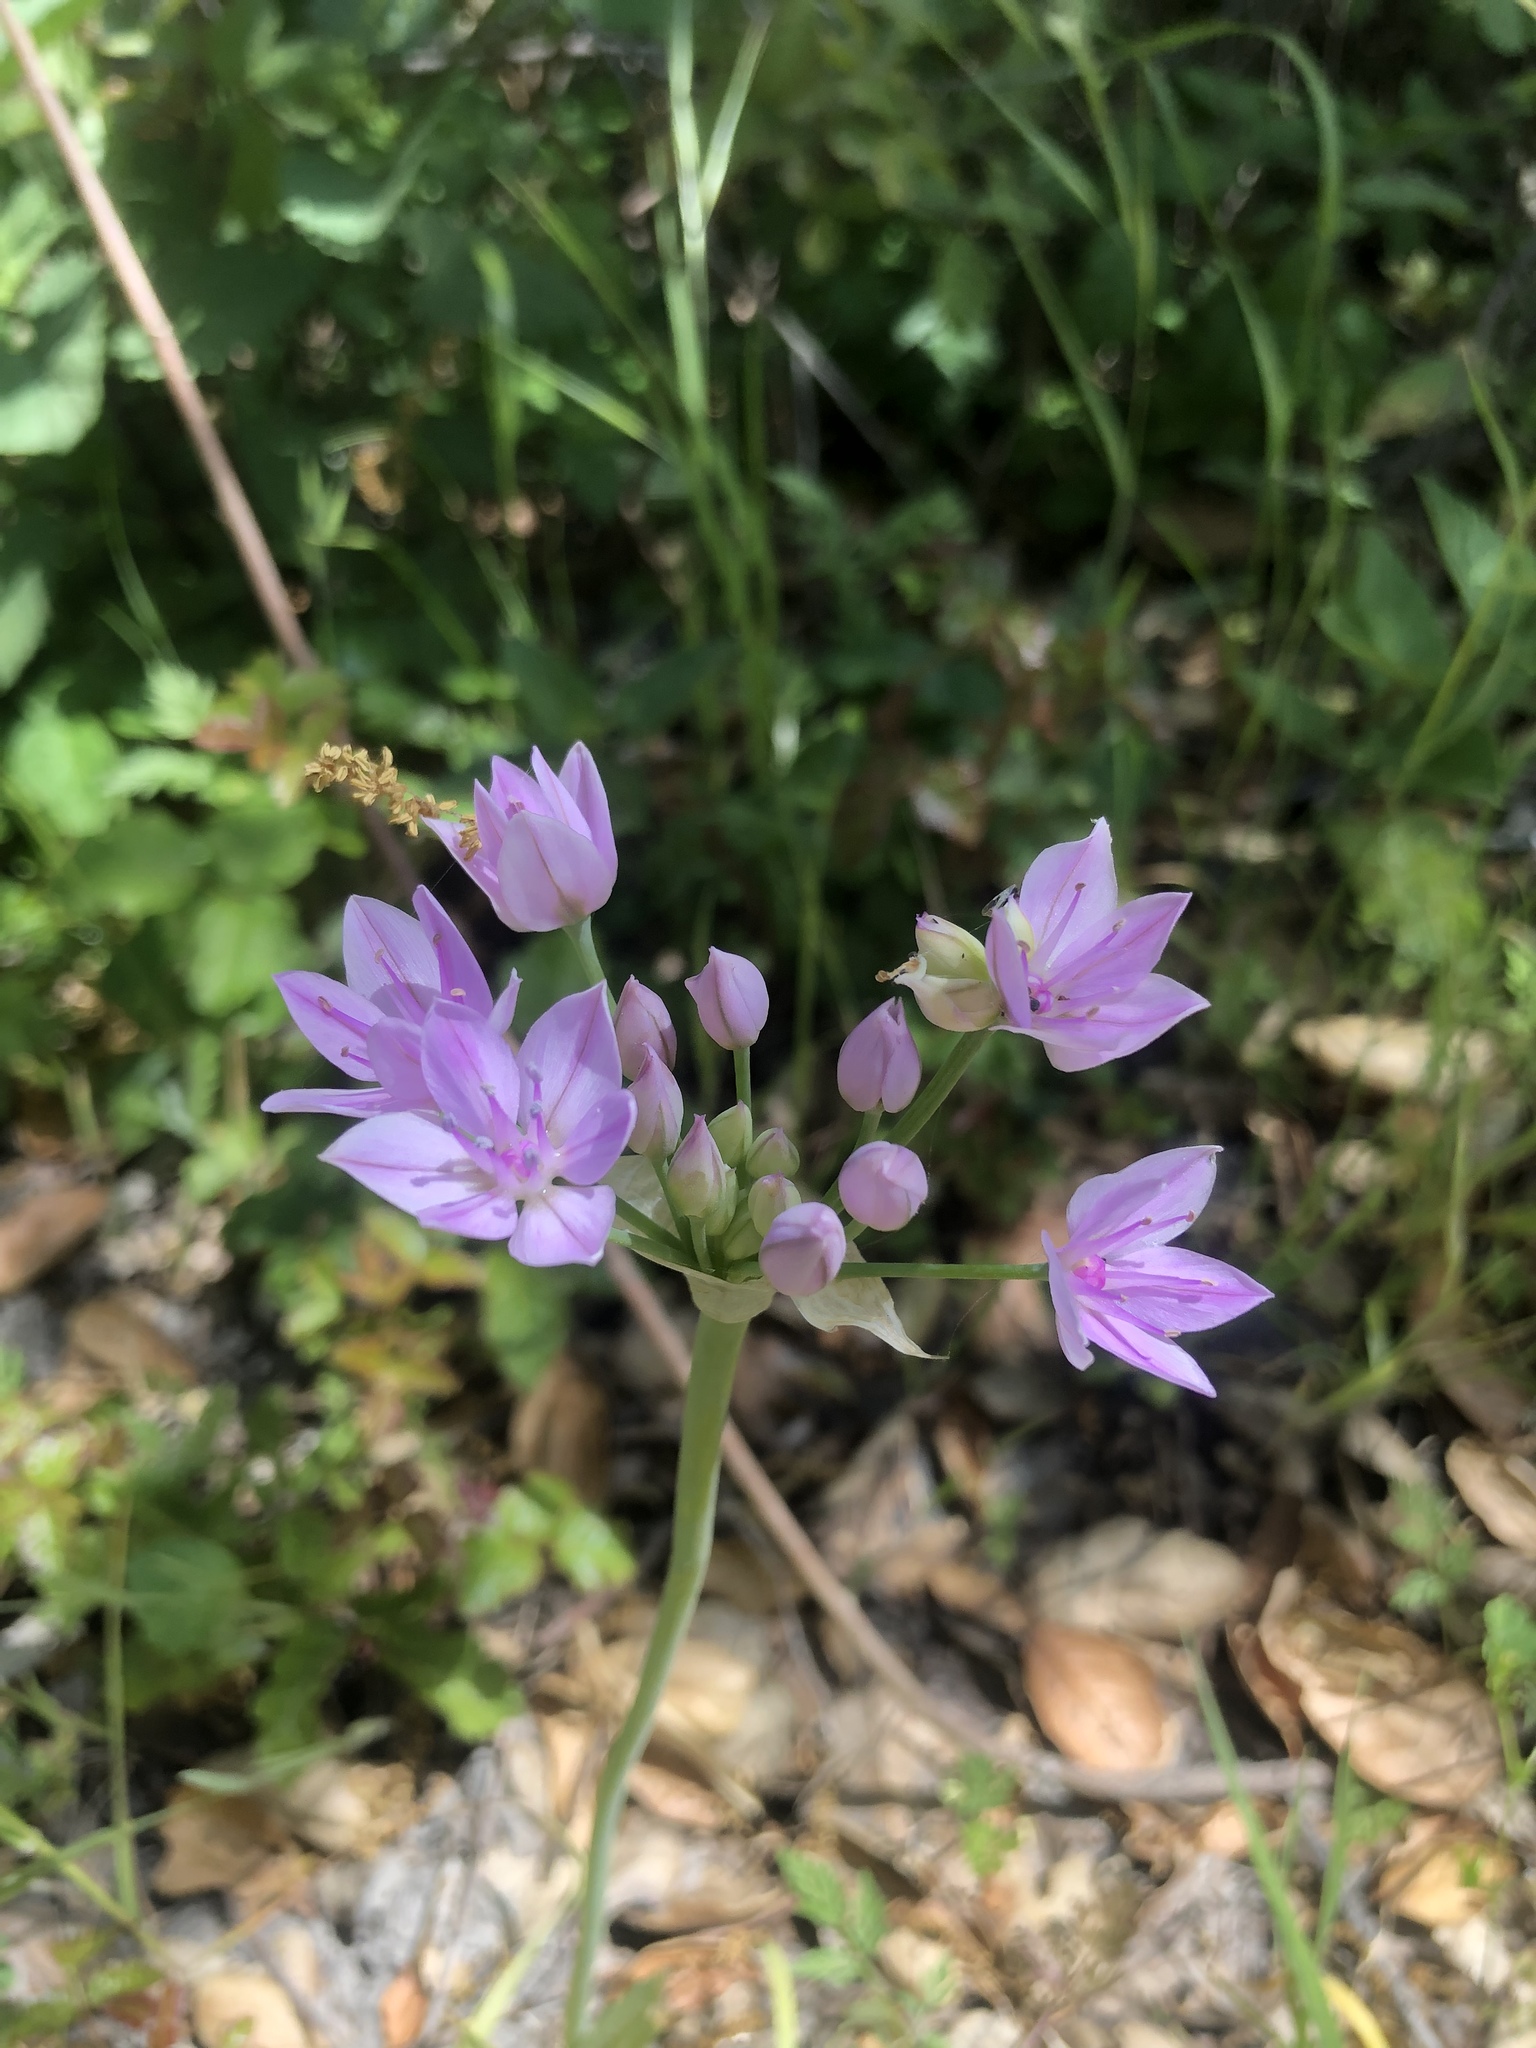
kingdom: Plantae
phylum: Tracheophyta
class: Liliopsida
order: Asparagales
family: Amaryllidaceae
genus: Allium
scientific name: Allium unifolium
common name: American garlic
